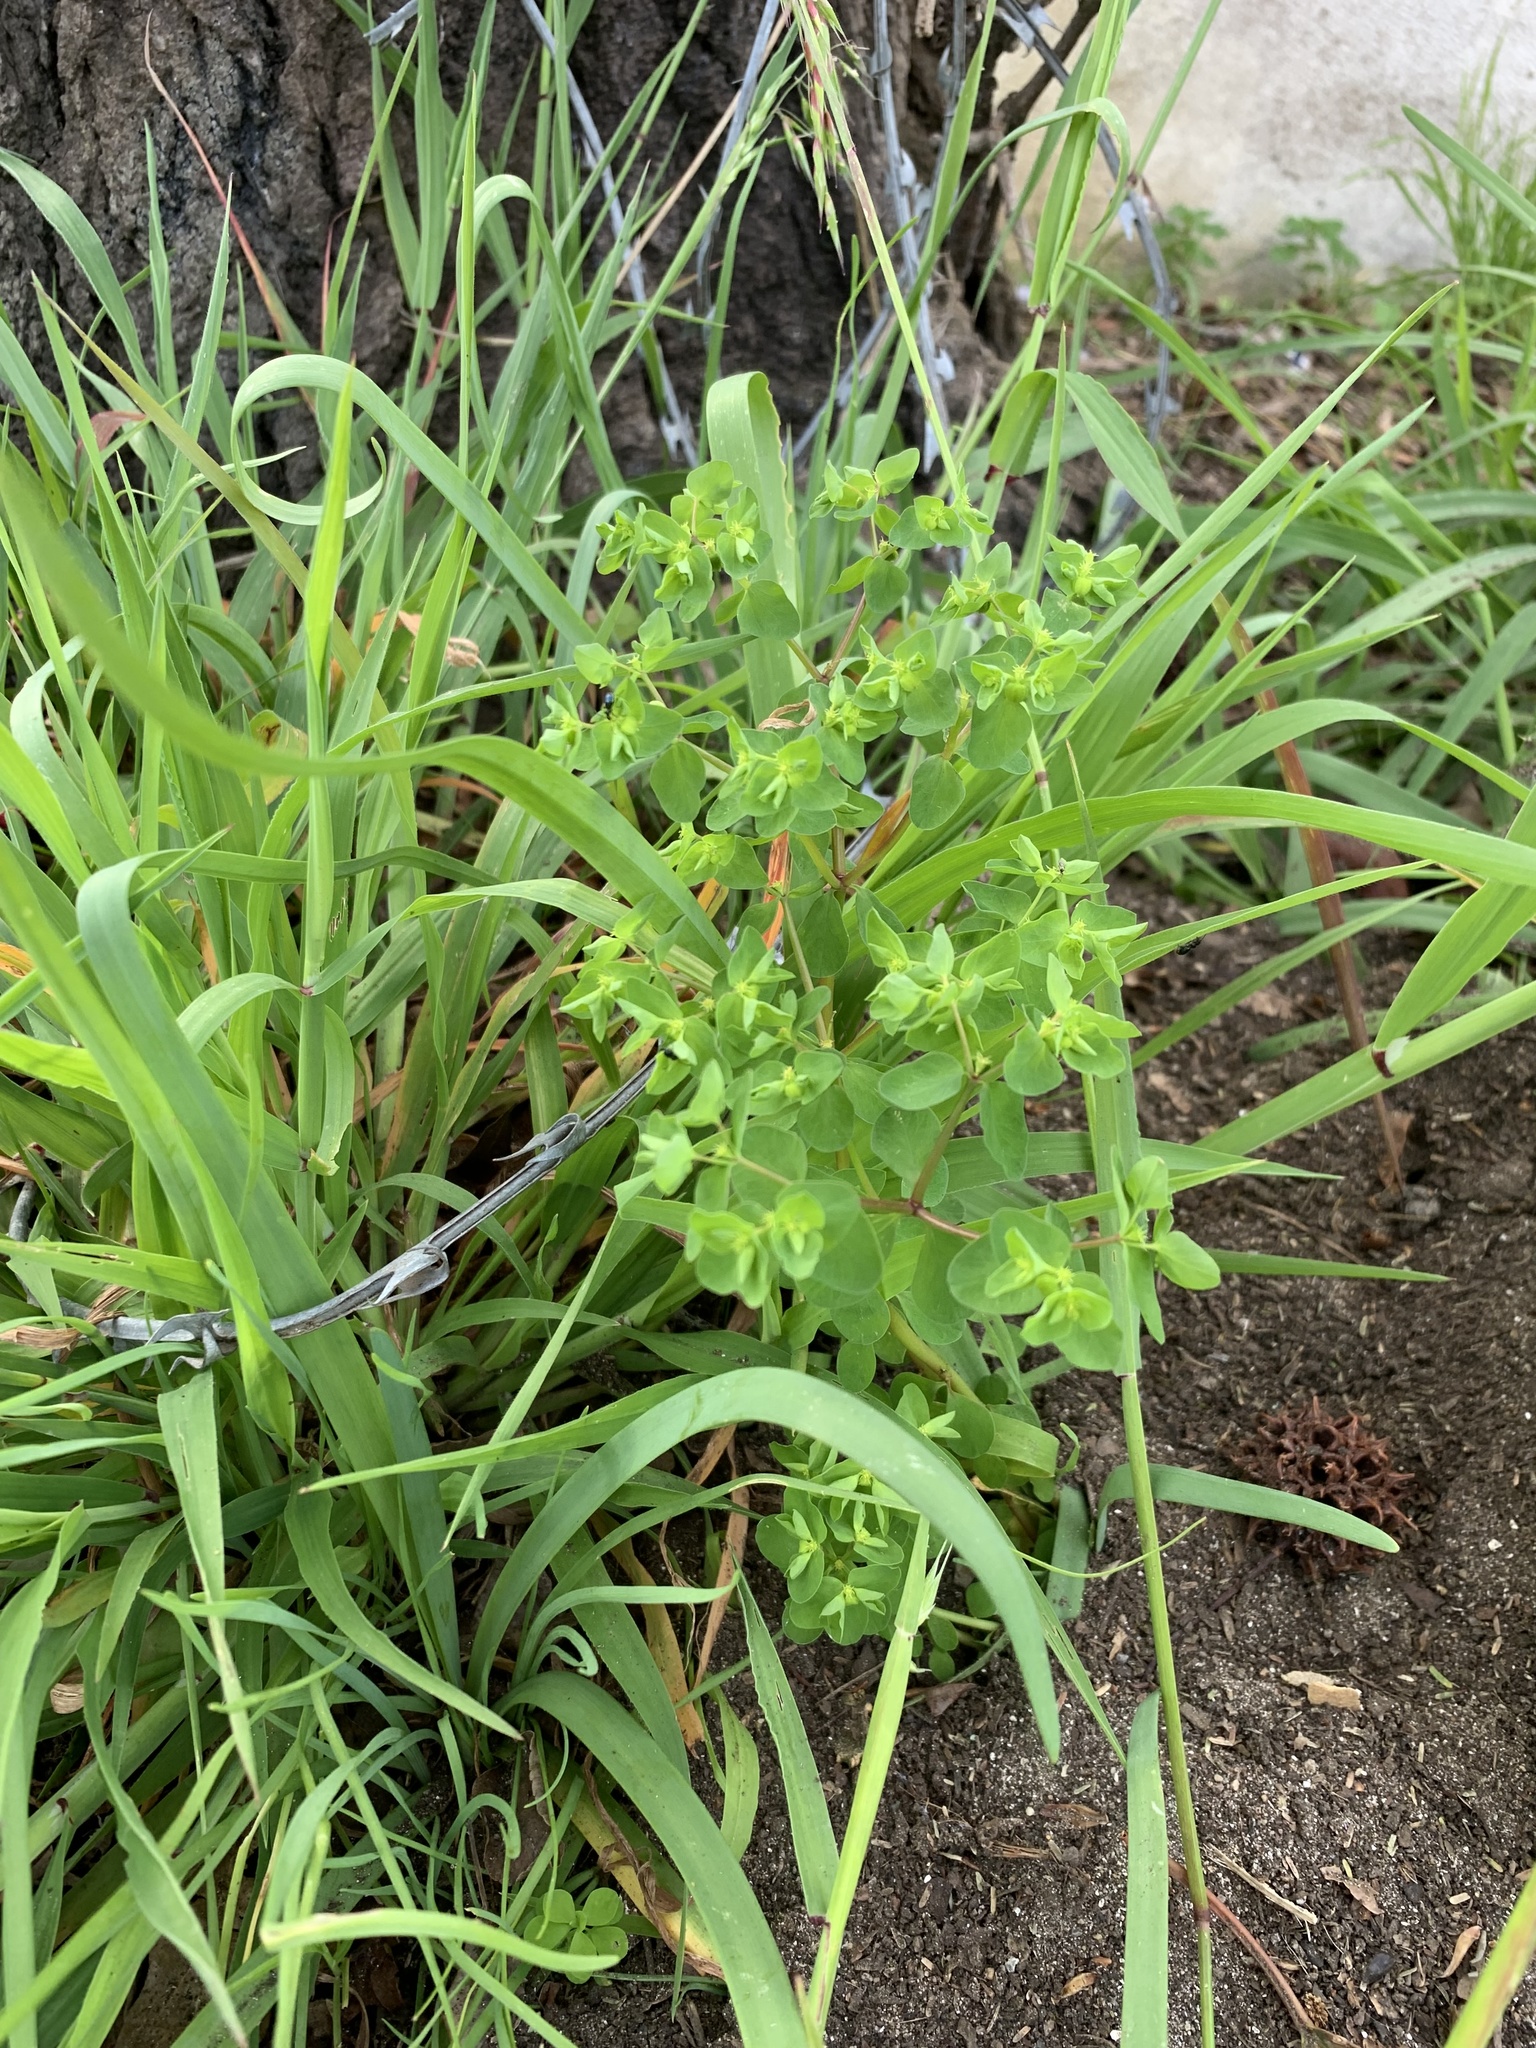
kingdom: Plantae
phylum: Tracheophyta
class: Magnoliopsida
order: Malpighiales
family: Euphorbiaceae
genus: Euphorbia
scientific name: Euphorbia peplus
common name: Petty spurge
